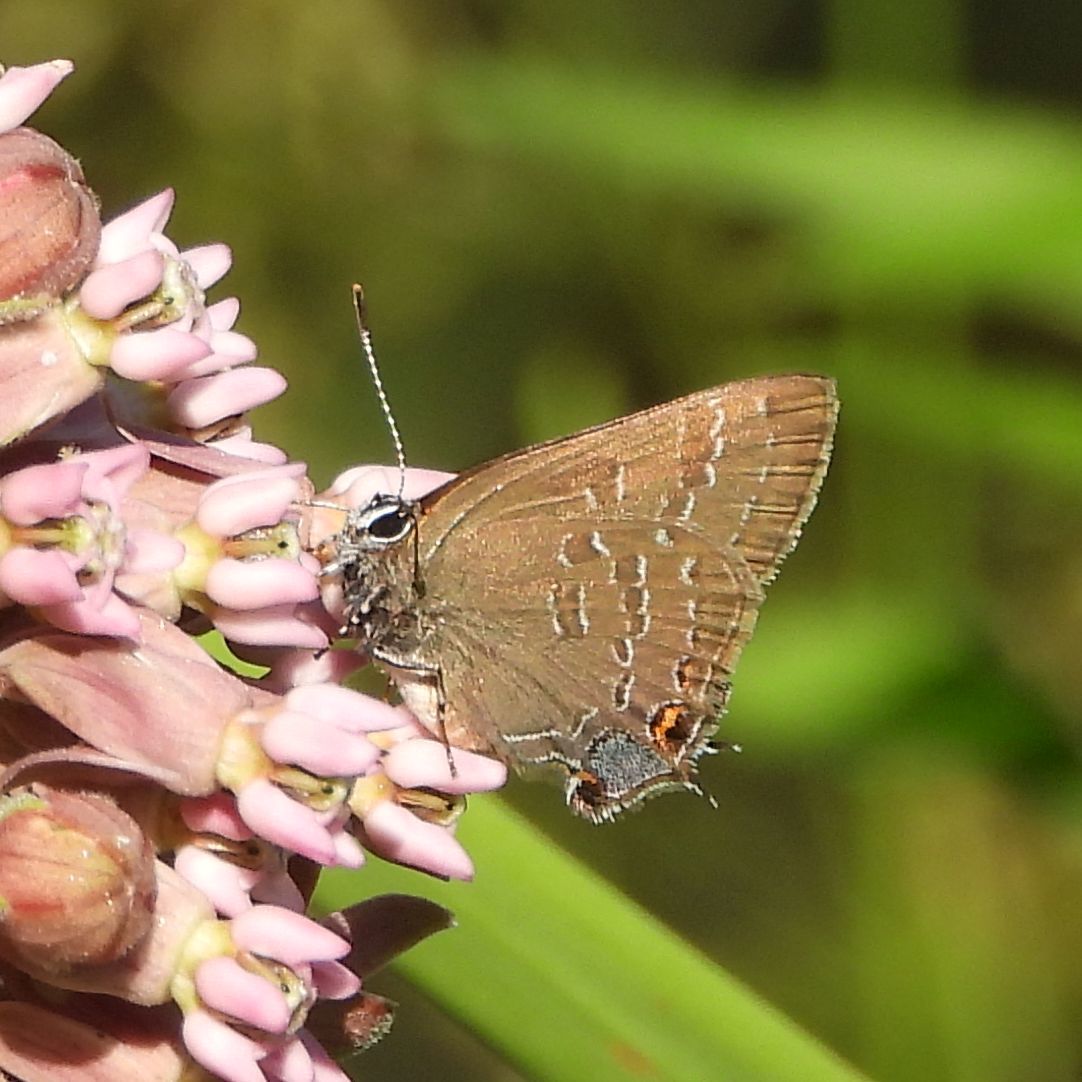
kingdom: Animalia
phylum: Arthropoda
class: Insecta
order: Lepidoptera
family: Lycaenidae
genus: Strymon
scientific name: Strymon caryaevorus
